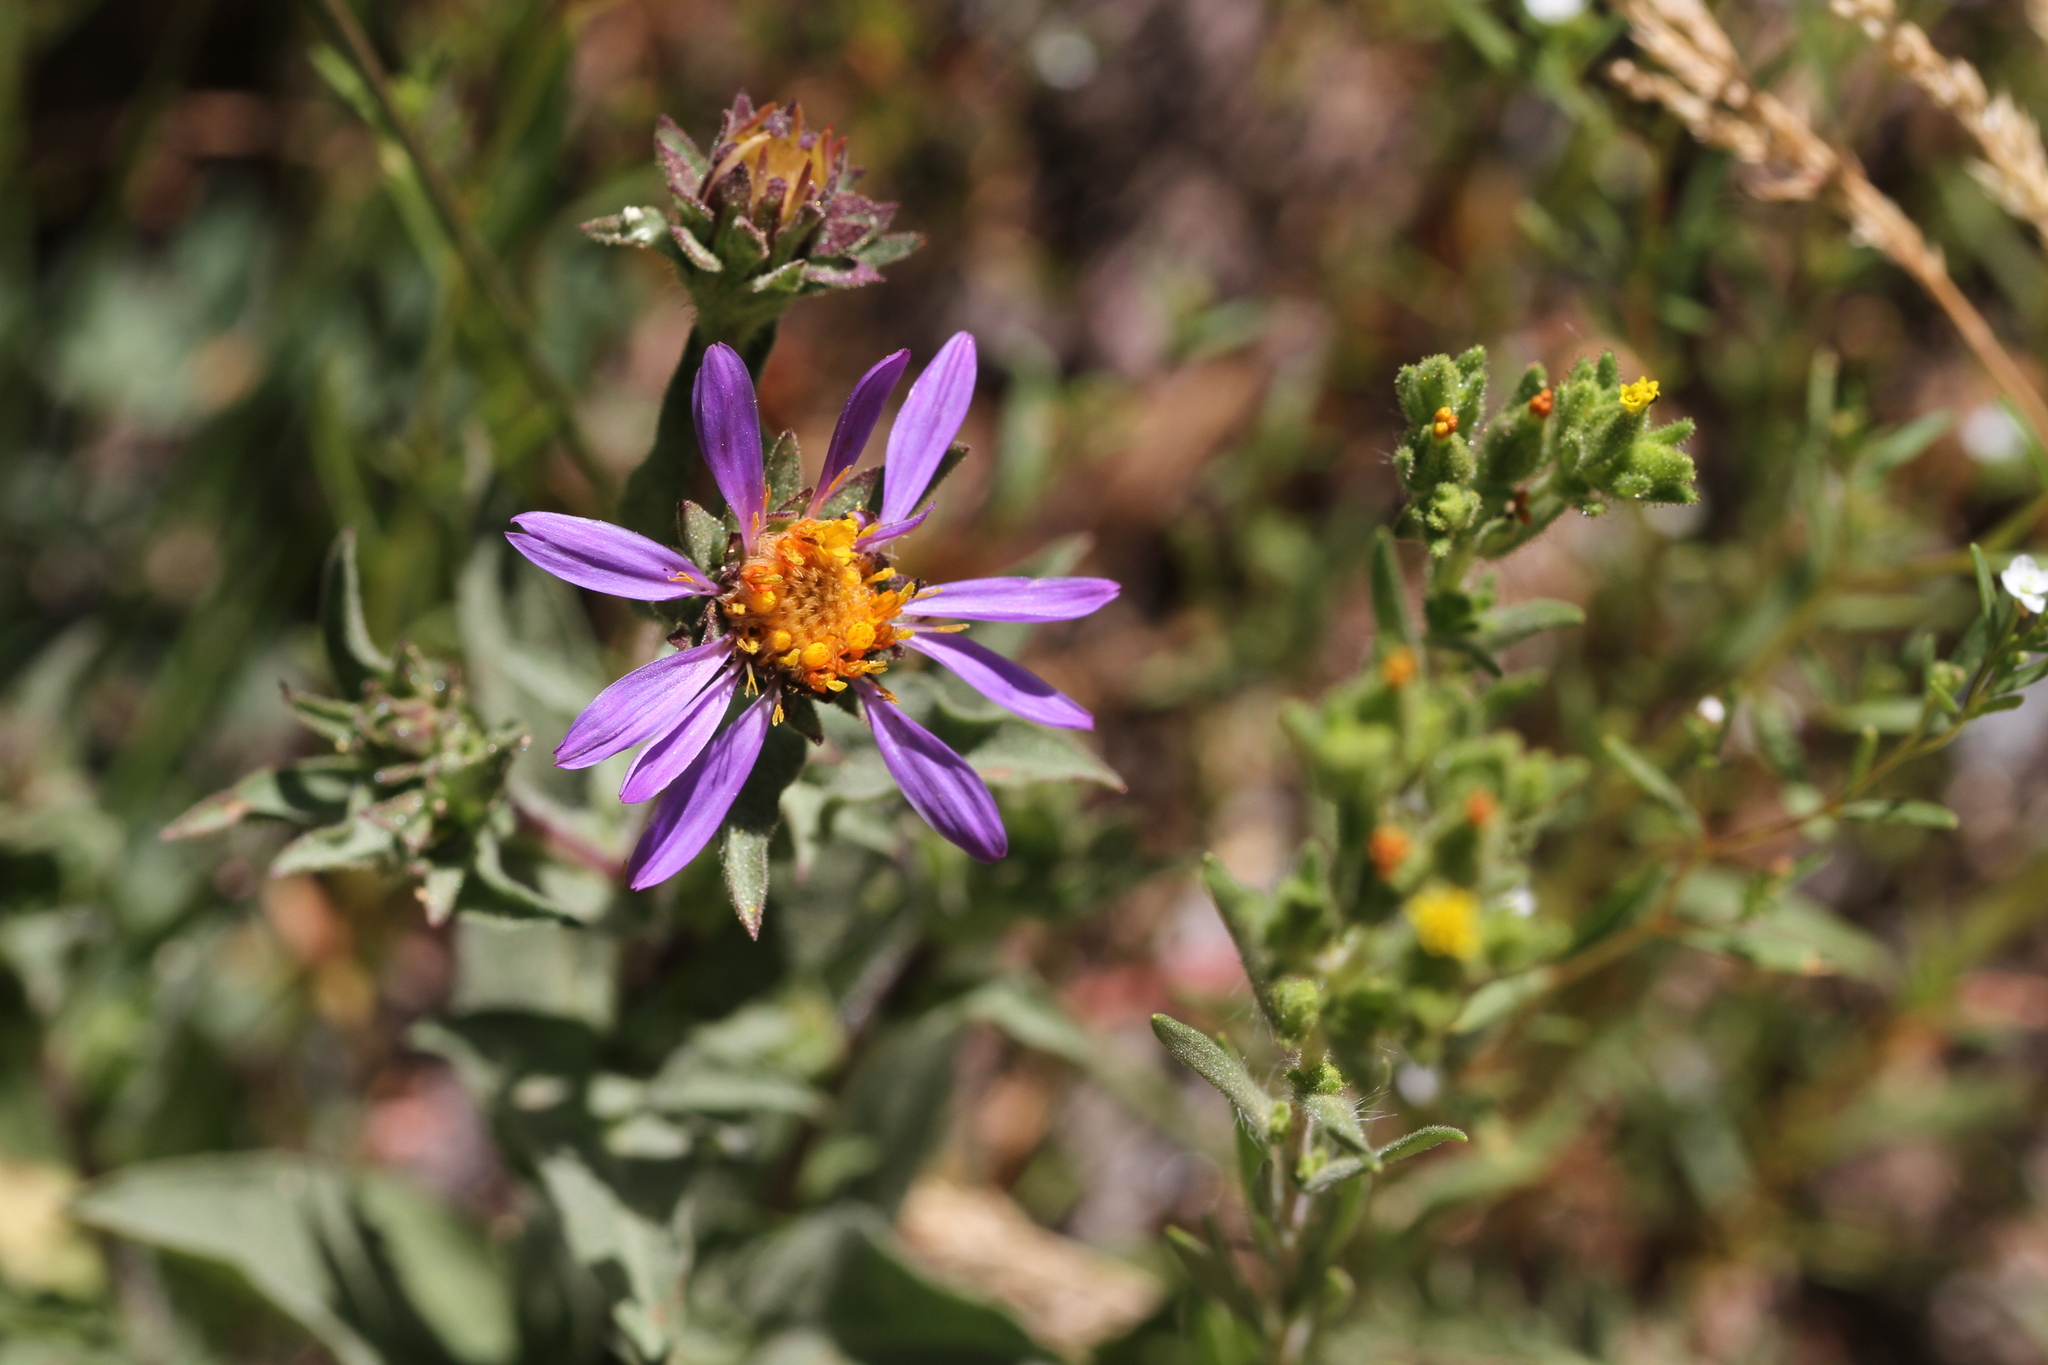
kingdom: Plantae
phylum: Tracheophyta
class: Magnoliopsida
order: Asterales
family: Asteraceae
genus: Eurybia
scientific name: Eurybia integrifolia
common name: Thick-stem aster
